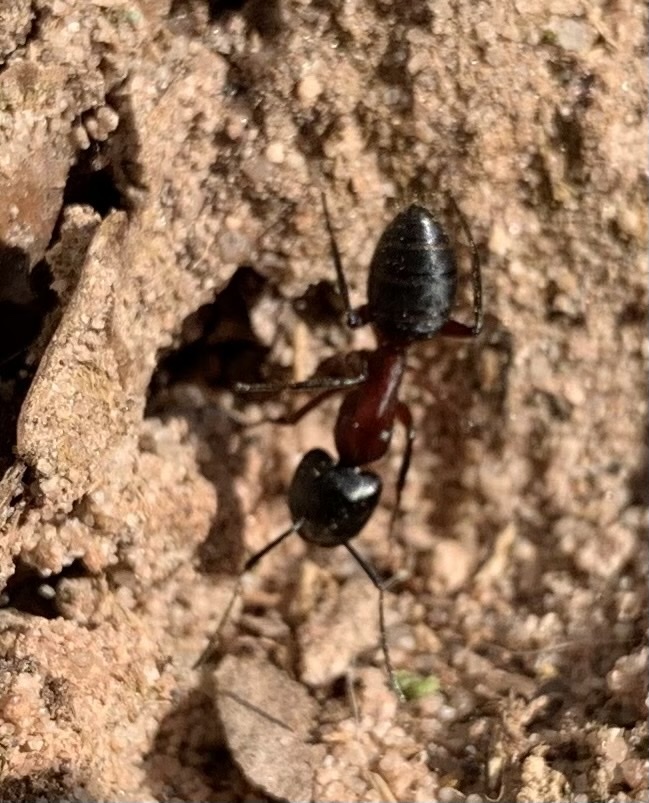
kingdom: Animalia
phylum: Arthropoda
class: Insecta
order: Hymenoptera
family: Formicidae
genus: Camponotus
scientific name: Camponotus ligniperdus
